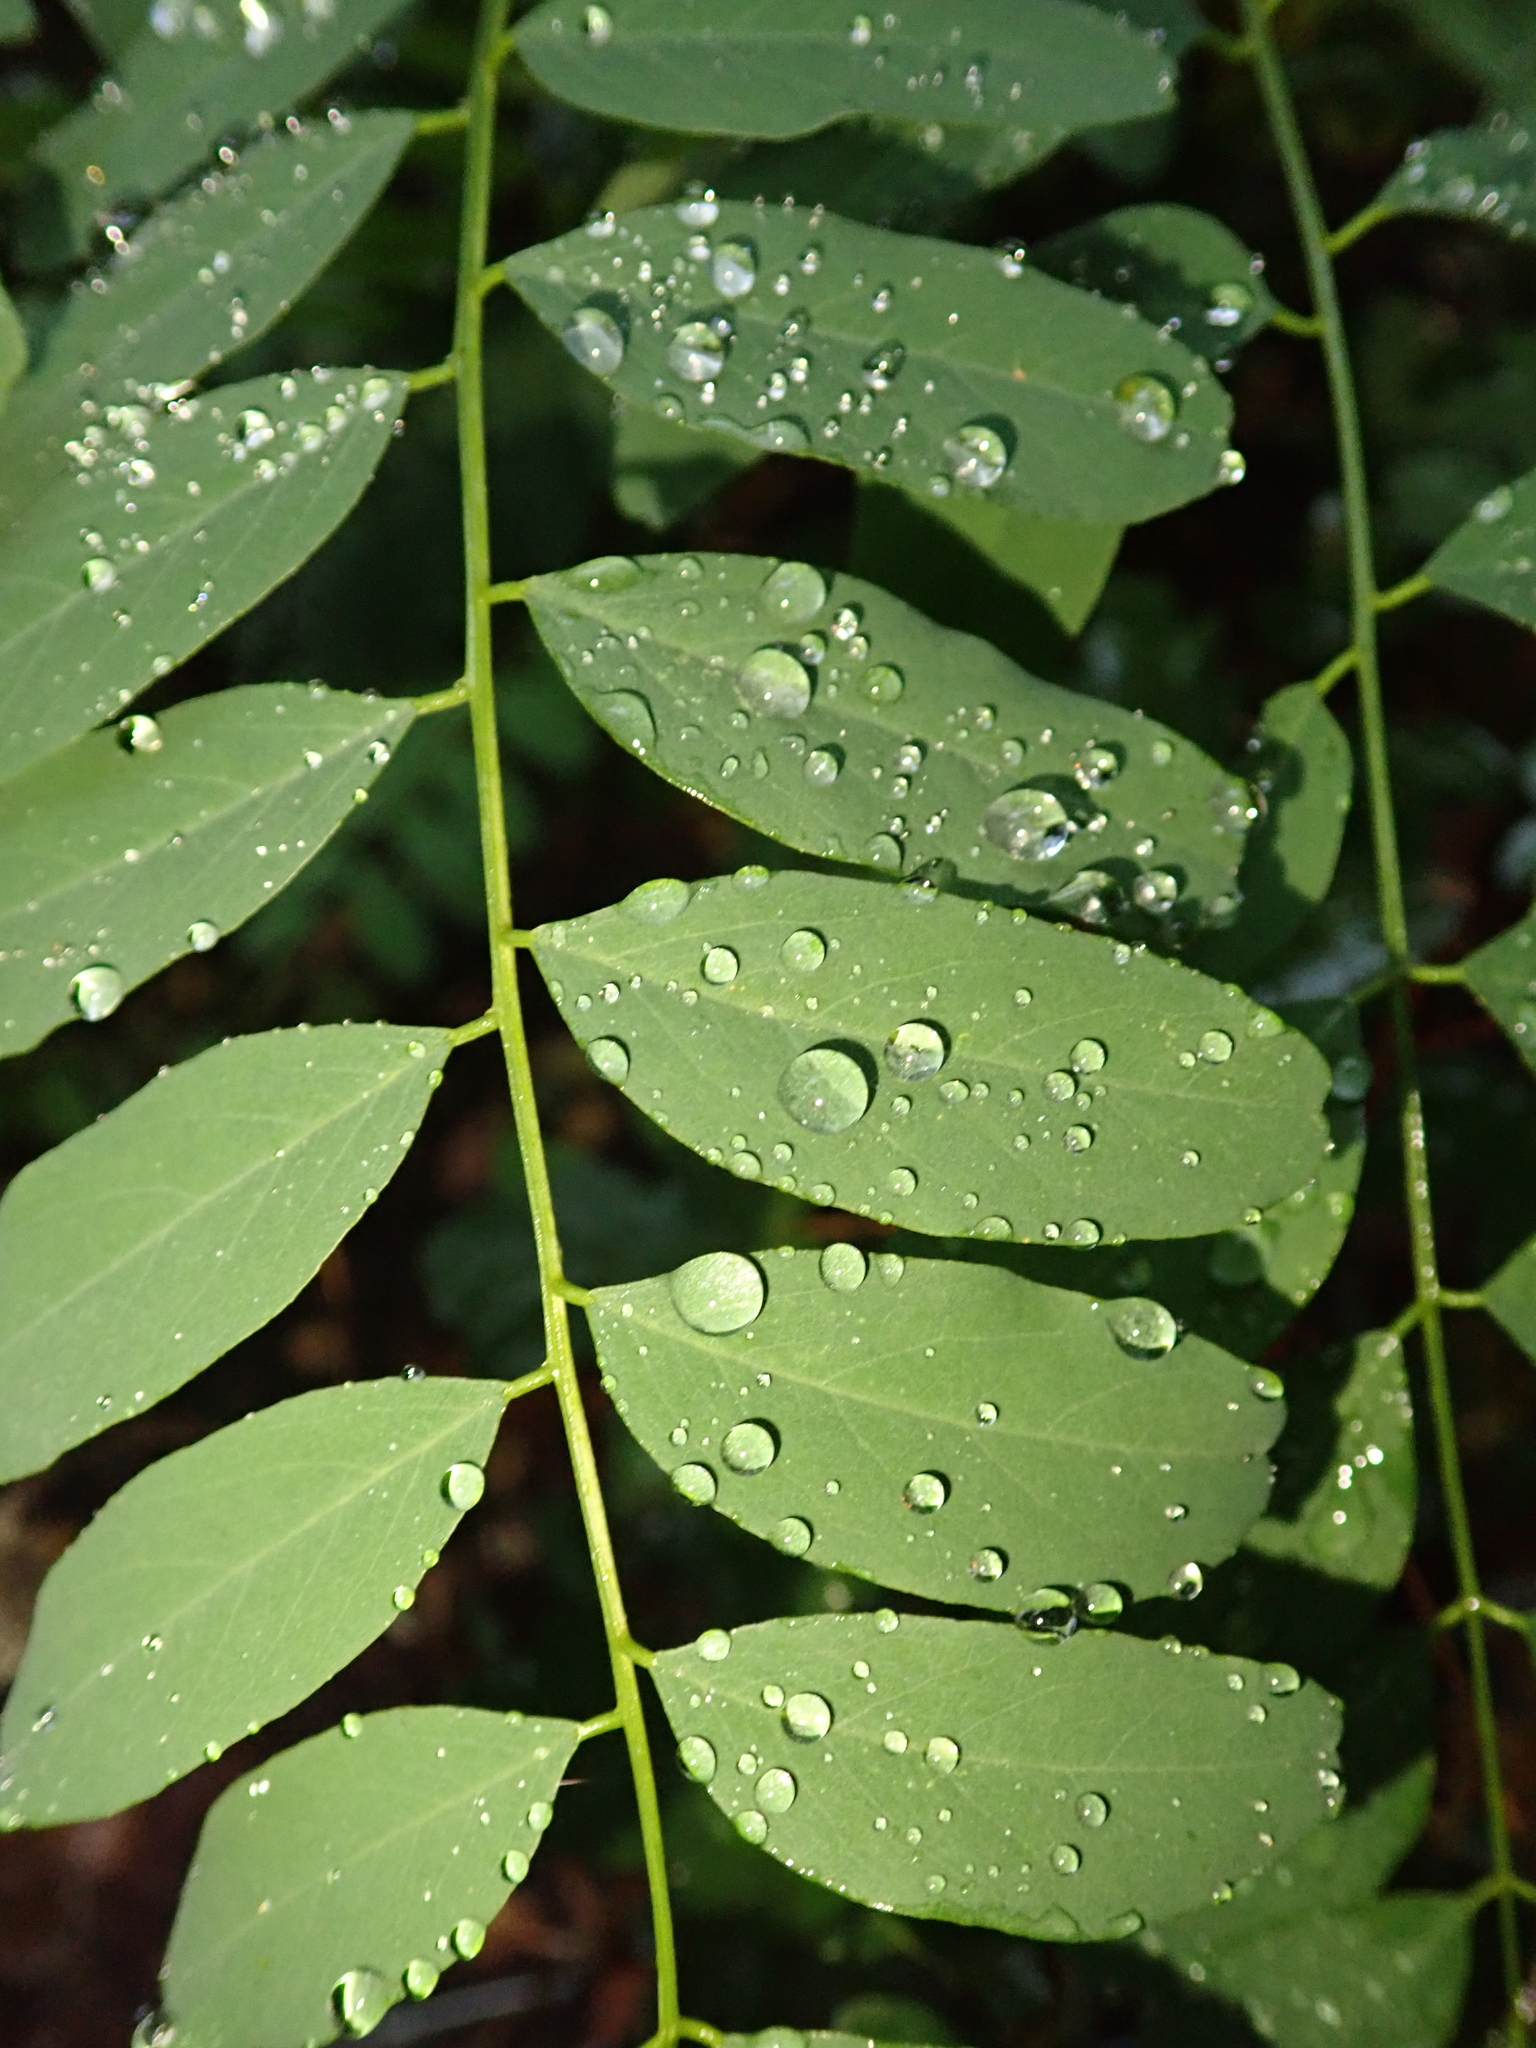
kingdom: Plantae
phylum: Tracheophyta
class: Magnoliopsida
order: Fabales
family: Fabaceae
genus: Robinia
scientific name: Robinia pseudoacacia
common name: Black locust
